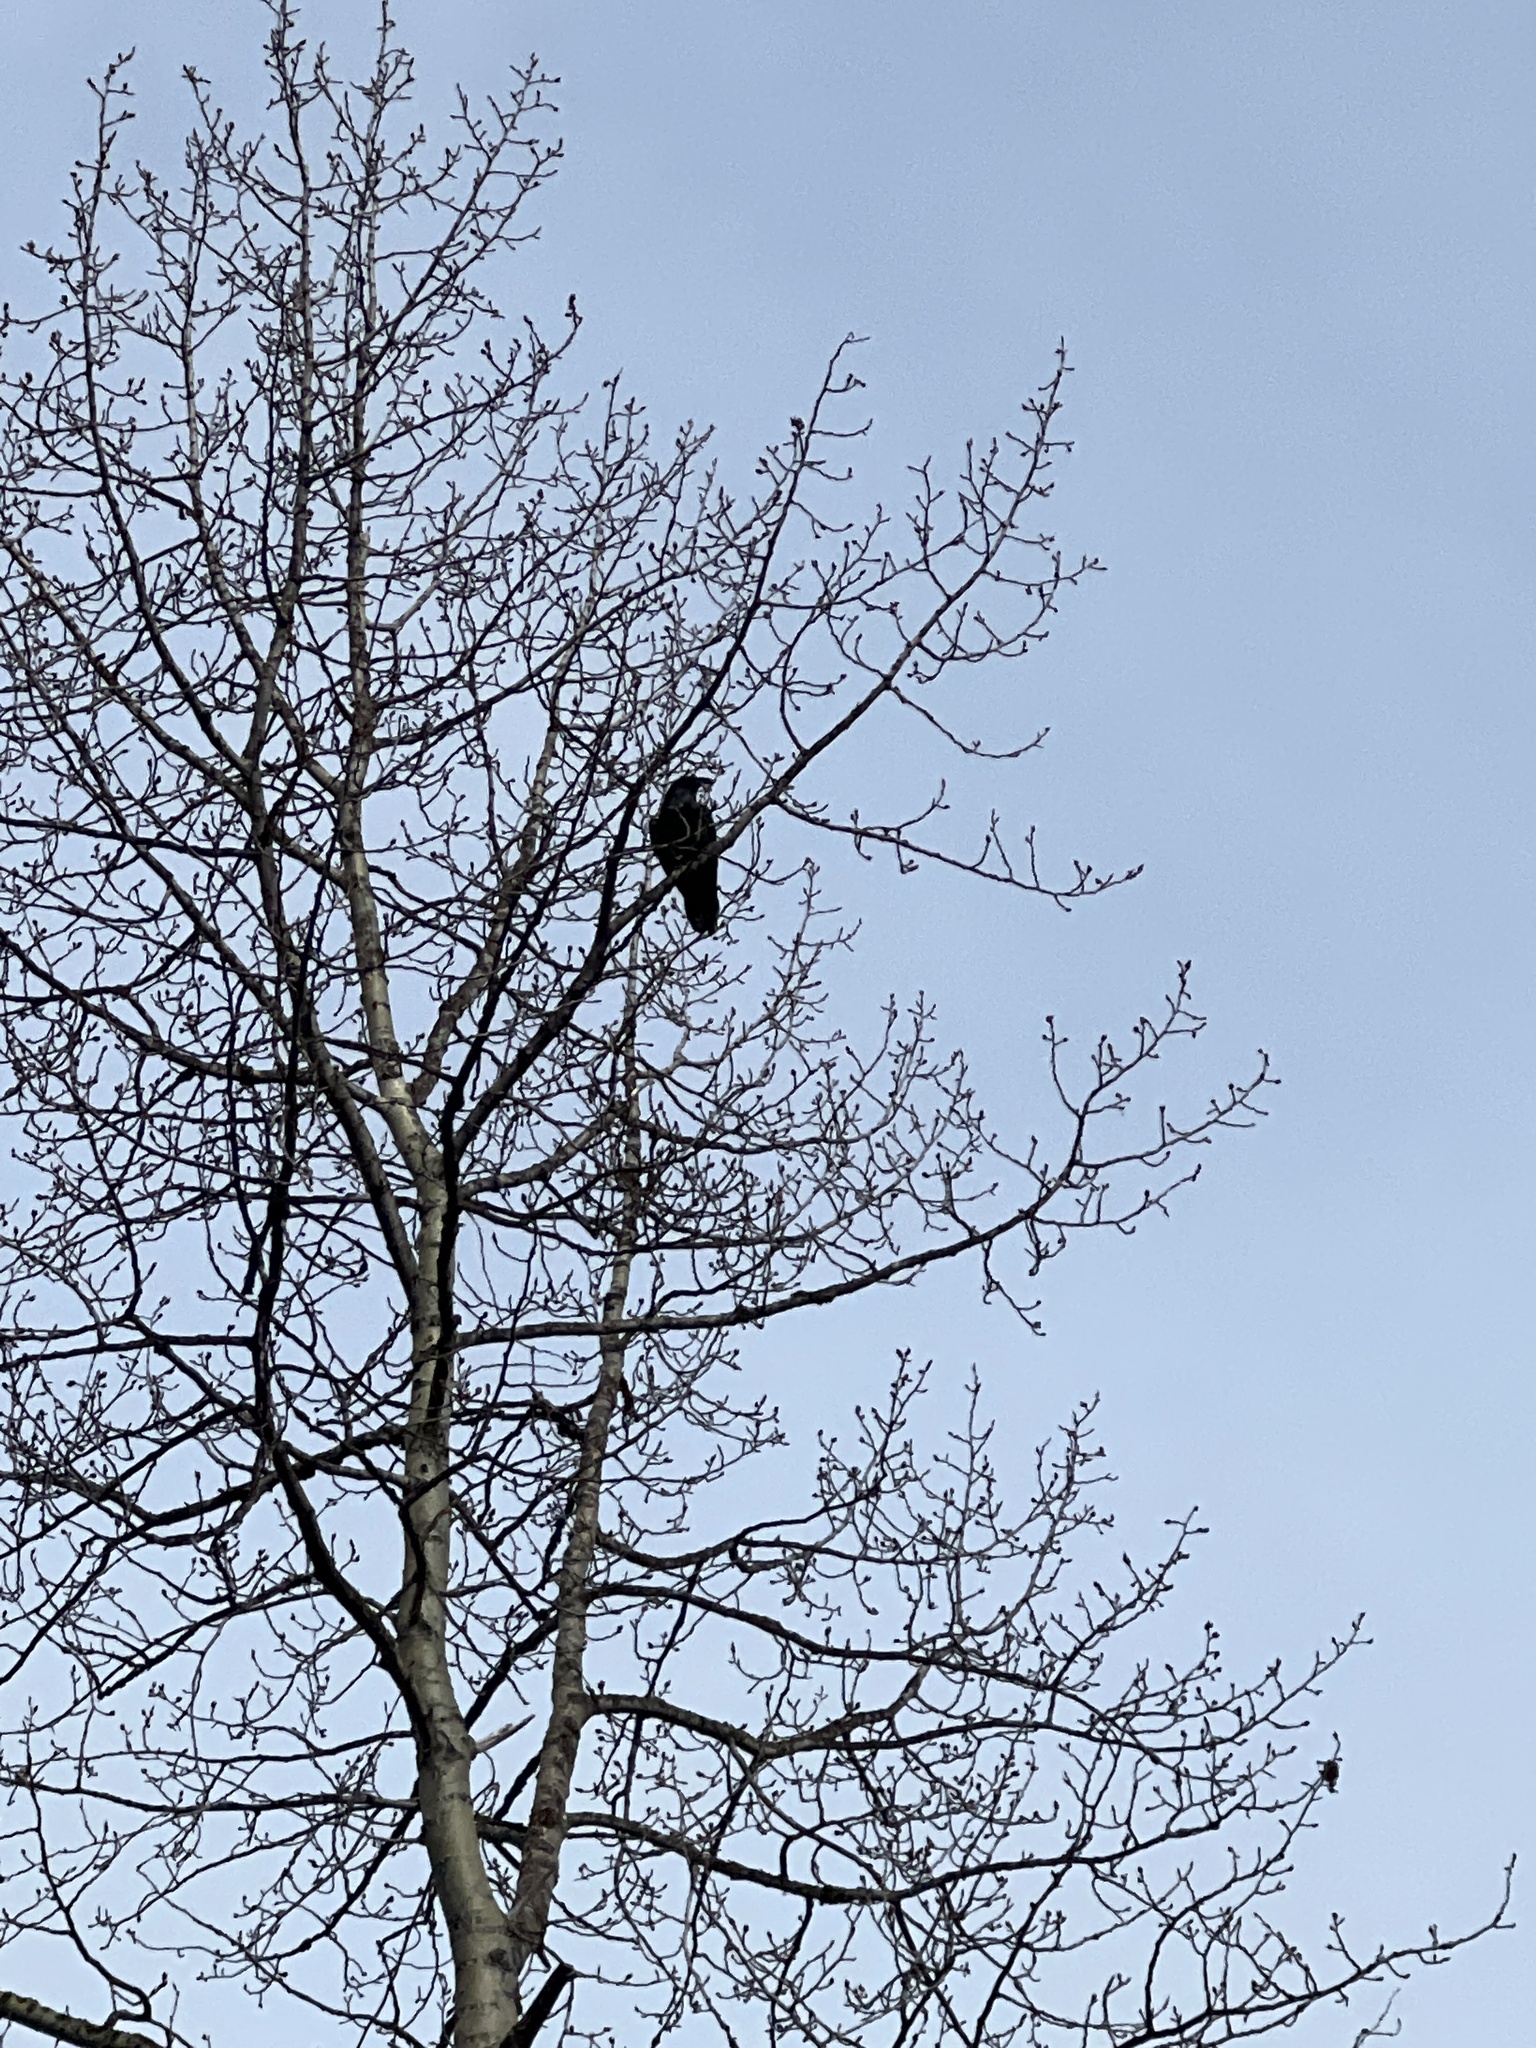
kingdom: Animalia
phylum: Chordata
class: Aves
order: Passeriformes
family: Corvidae
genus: Corvus
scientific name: Corvus corax
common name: Common raven
